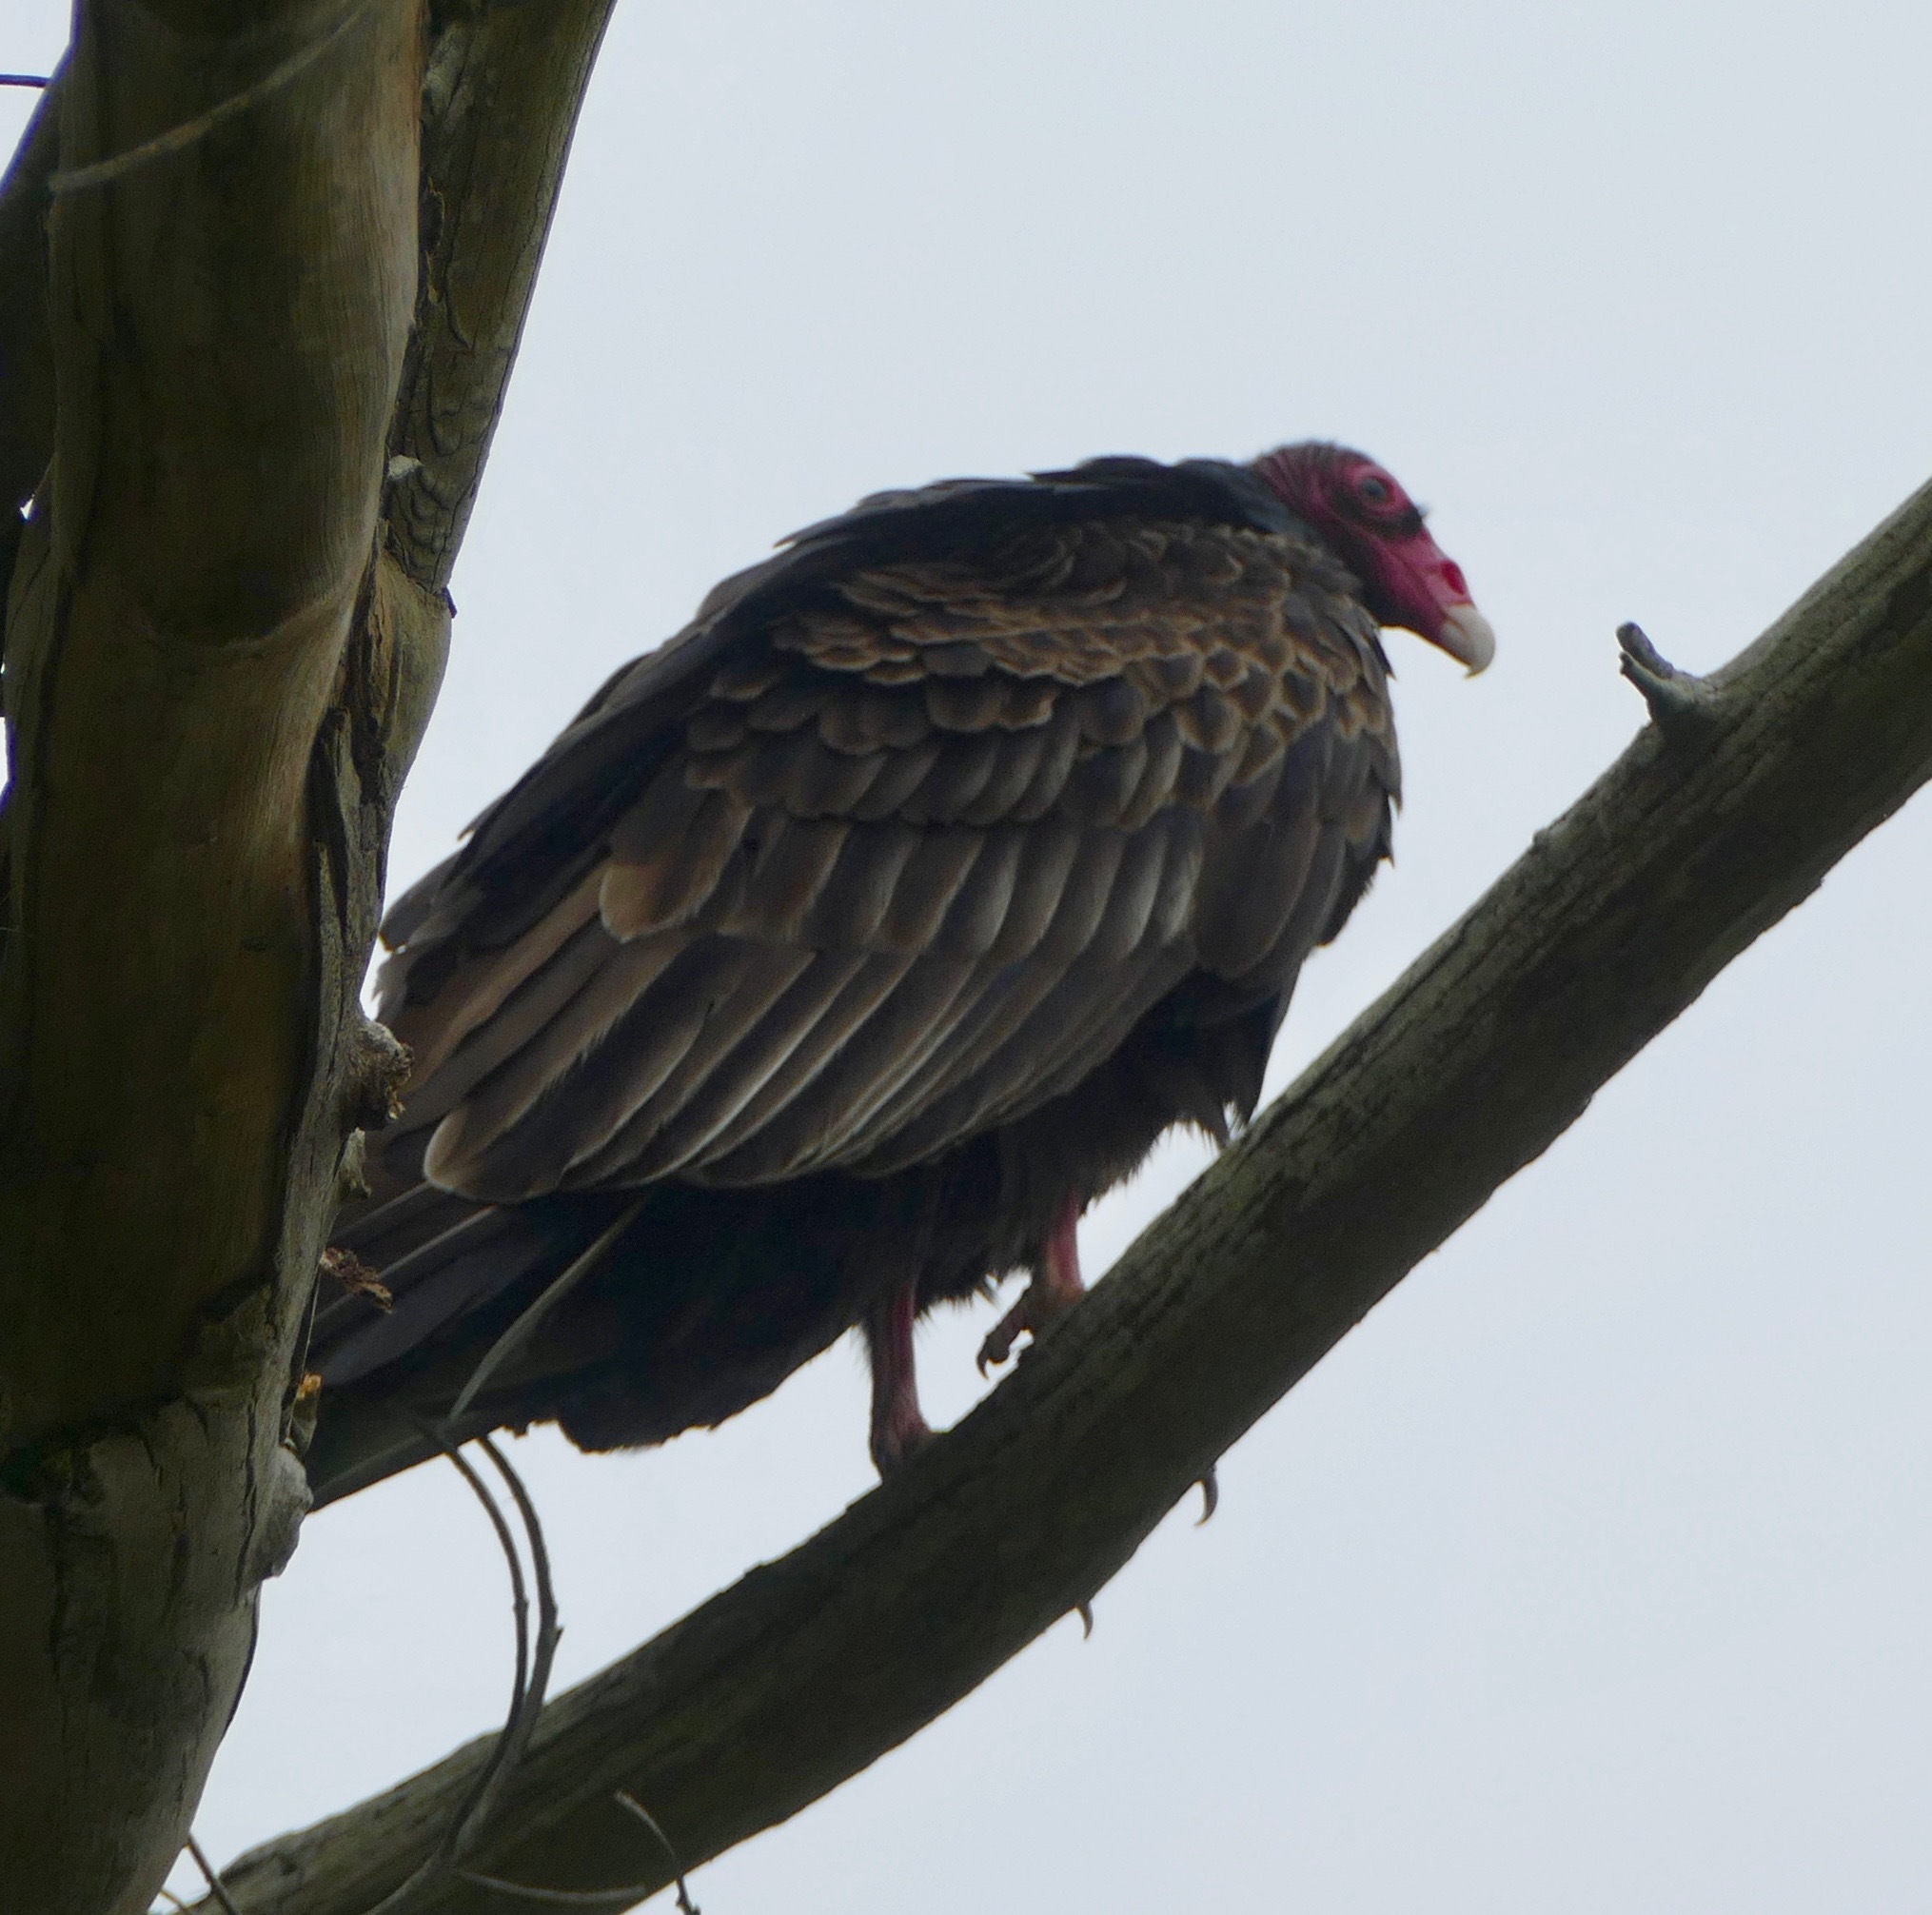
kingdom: Animalia
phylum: Chordata
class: Aves
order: Accipitriformes
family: Cathartidae
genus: Cathartes
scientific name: Cathartes aura
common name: Turkey vulture
